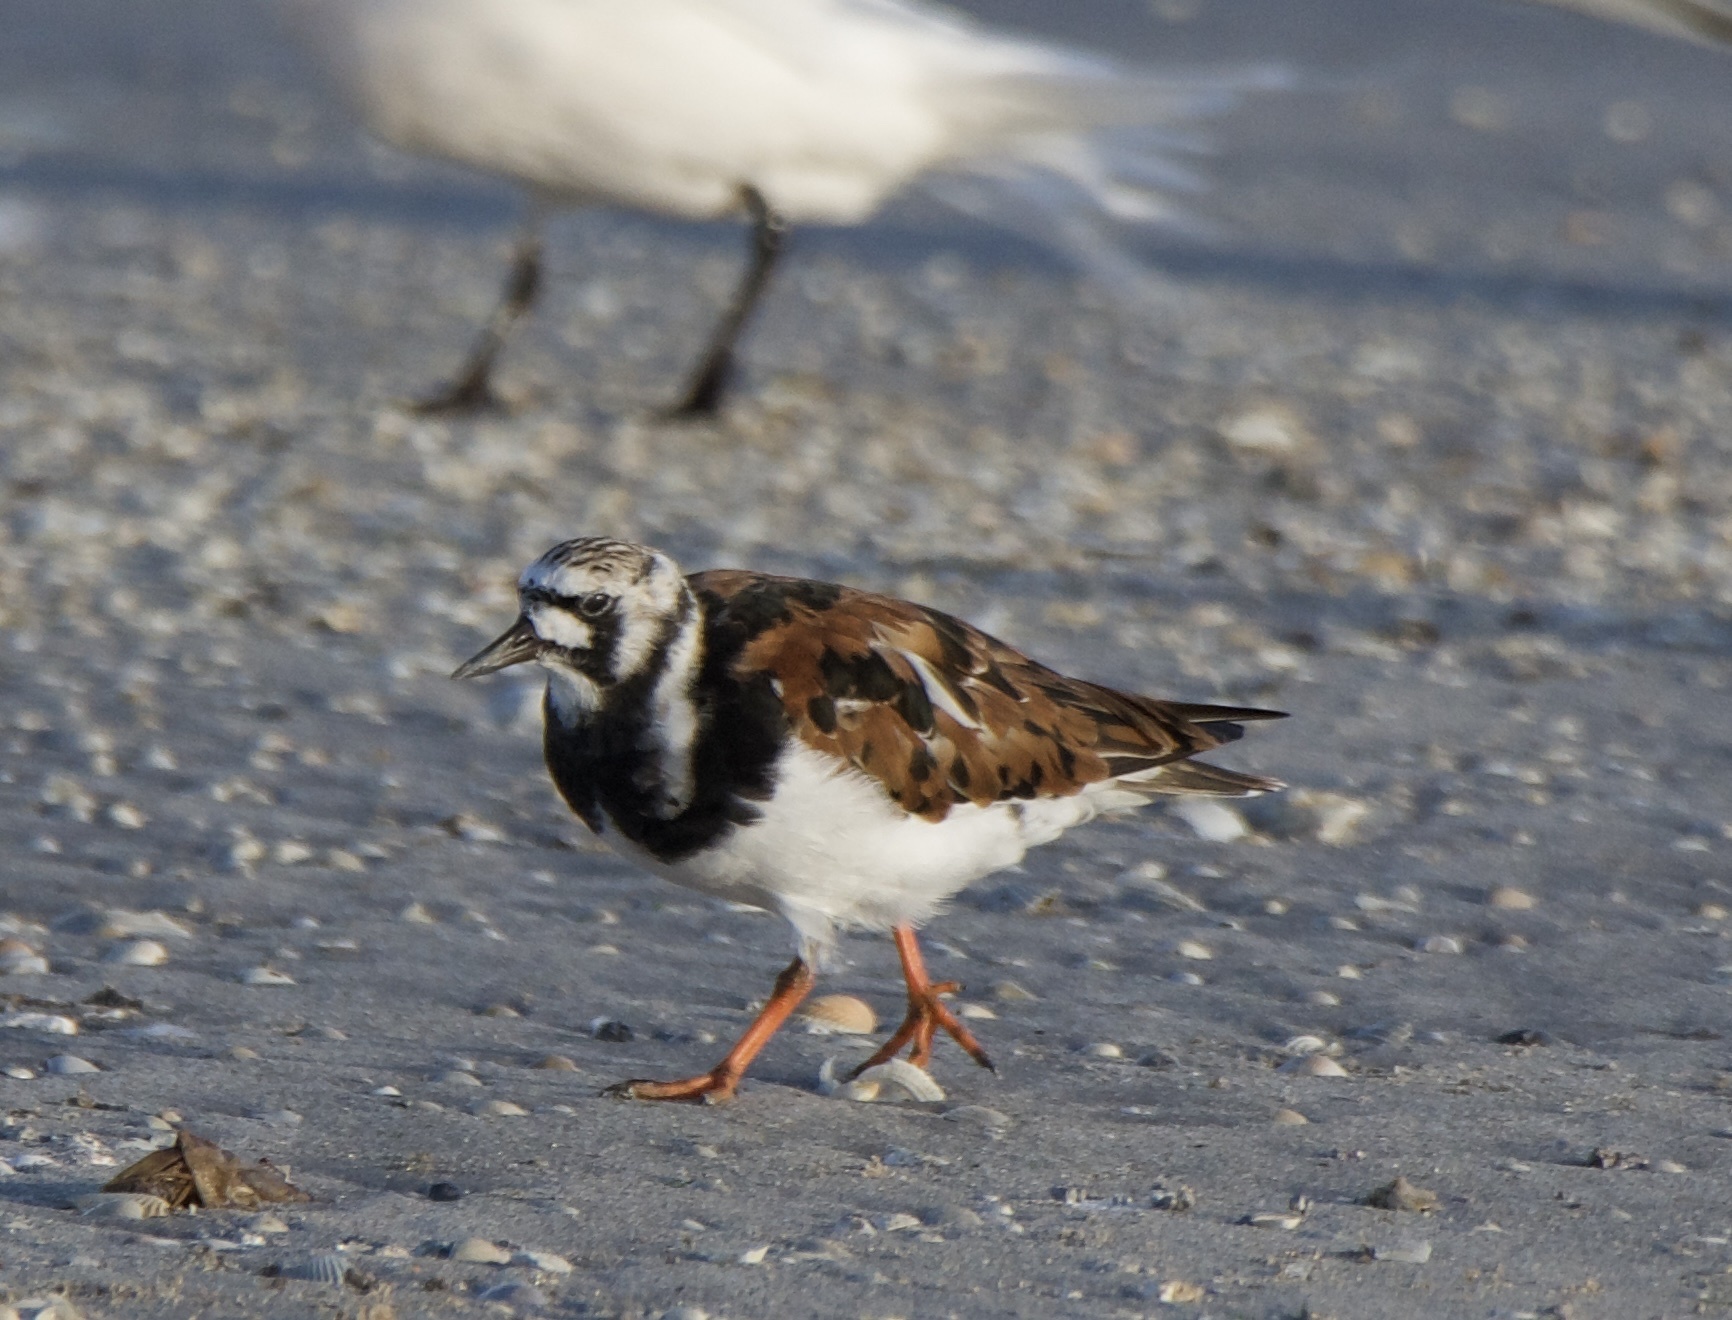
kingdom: Animalia
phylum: Chordata
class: Aves
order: Charadriiformes
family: Scolopacidae
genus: Arenaria
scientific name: Arenaria interpres
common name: Ruddy turnstone
